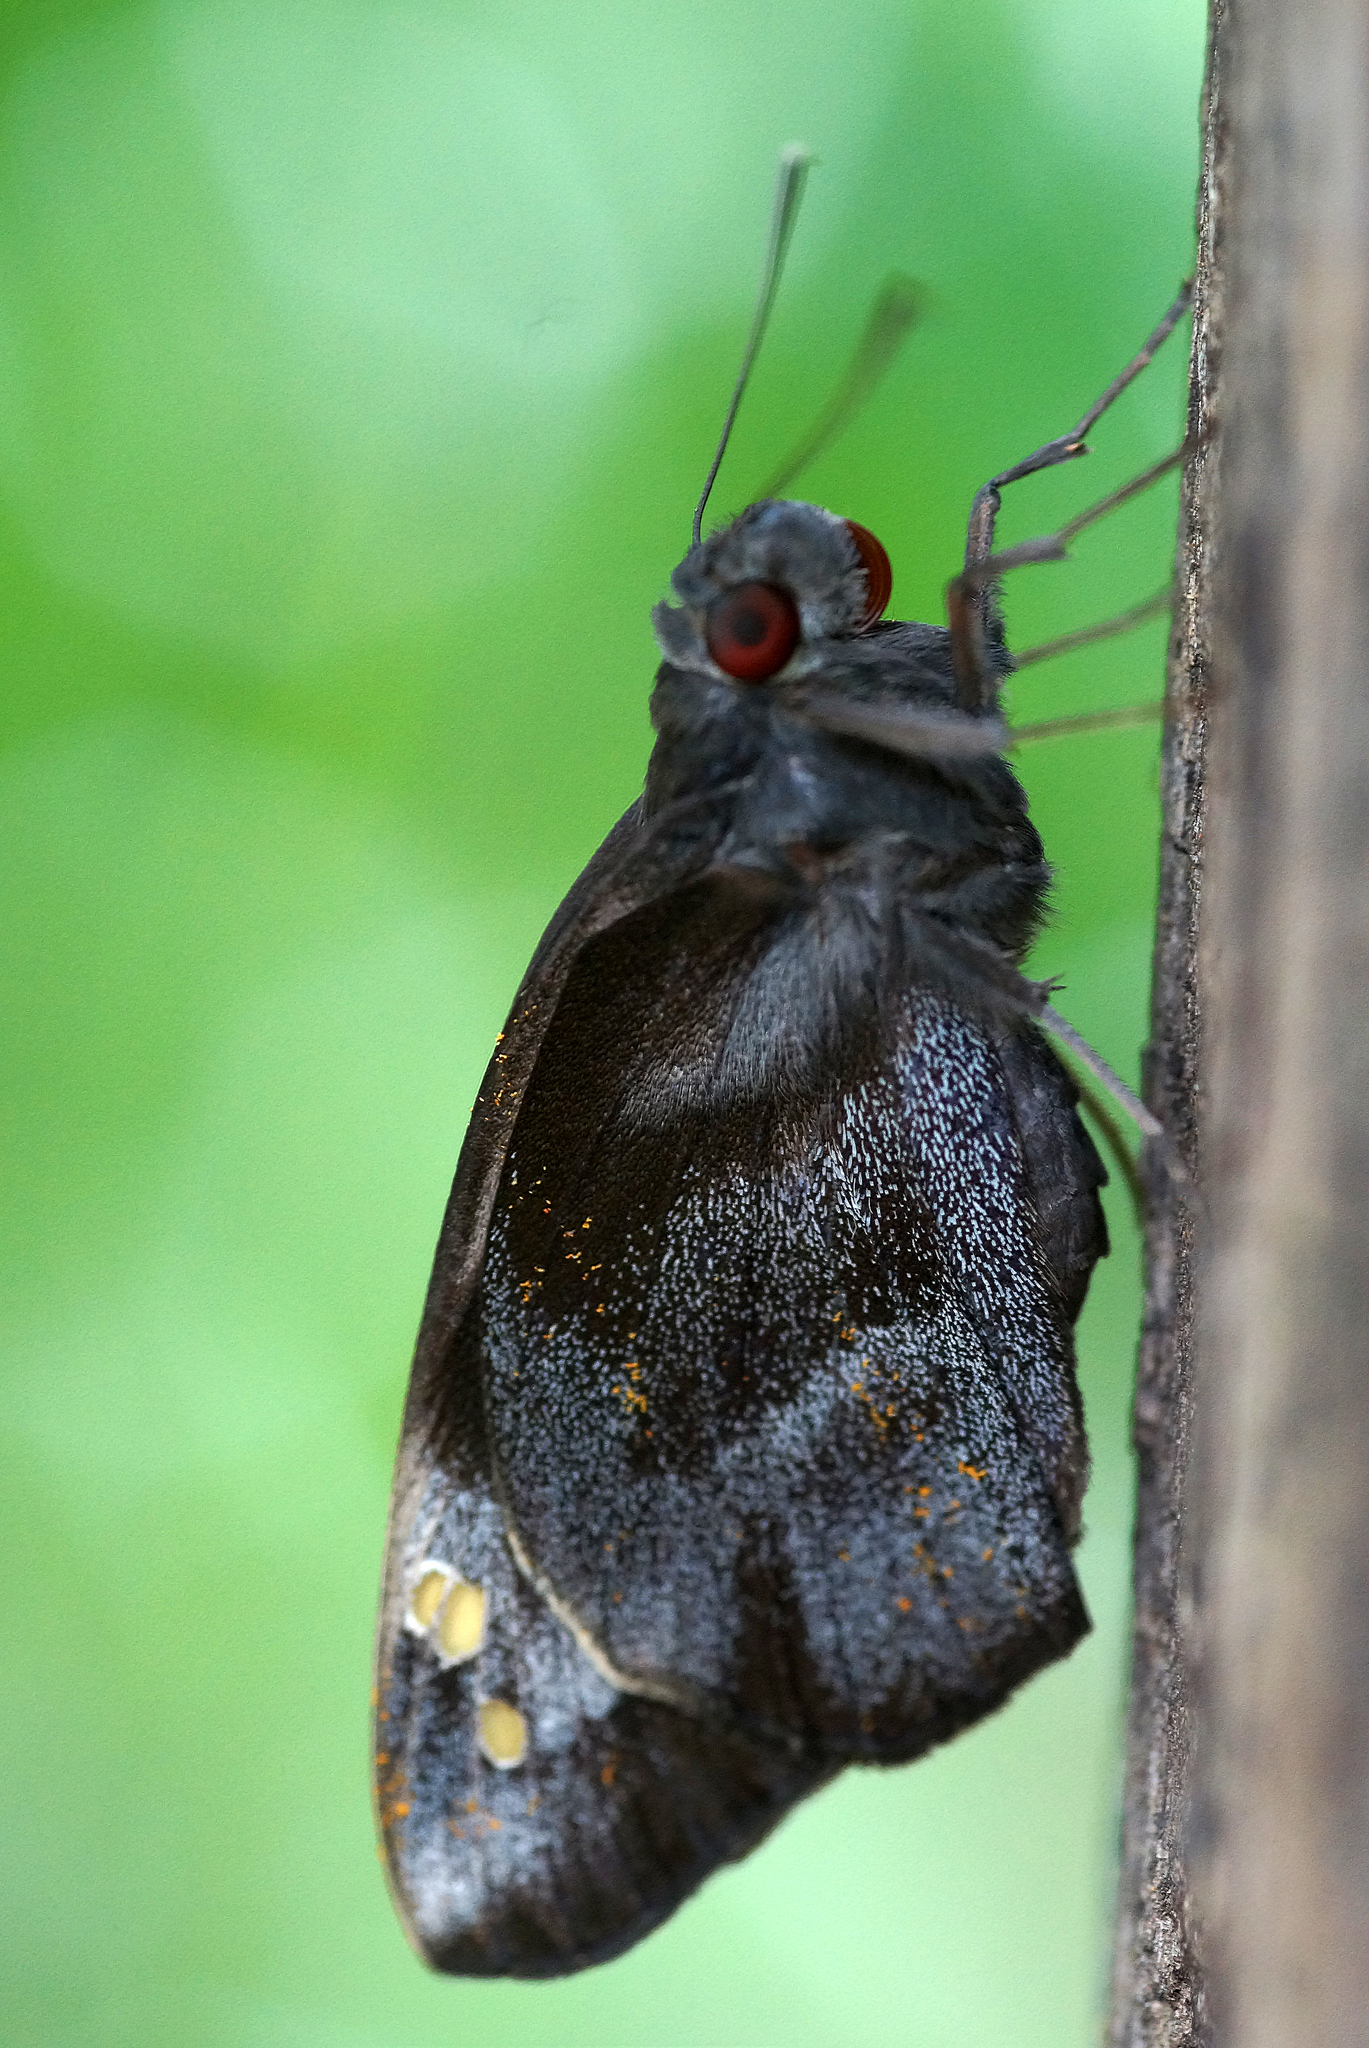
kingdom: Animalia
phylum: Arthropoda
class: Insecta
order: Lepidoptera
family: Hesperiidae
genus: Gangara
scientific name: Gangara thyrsis
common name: Giant redeye
